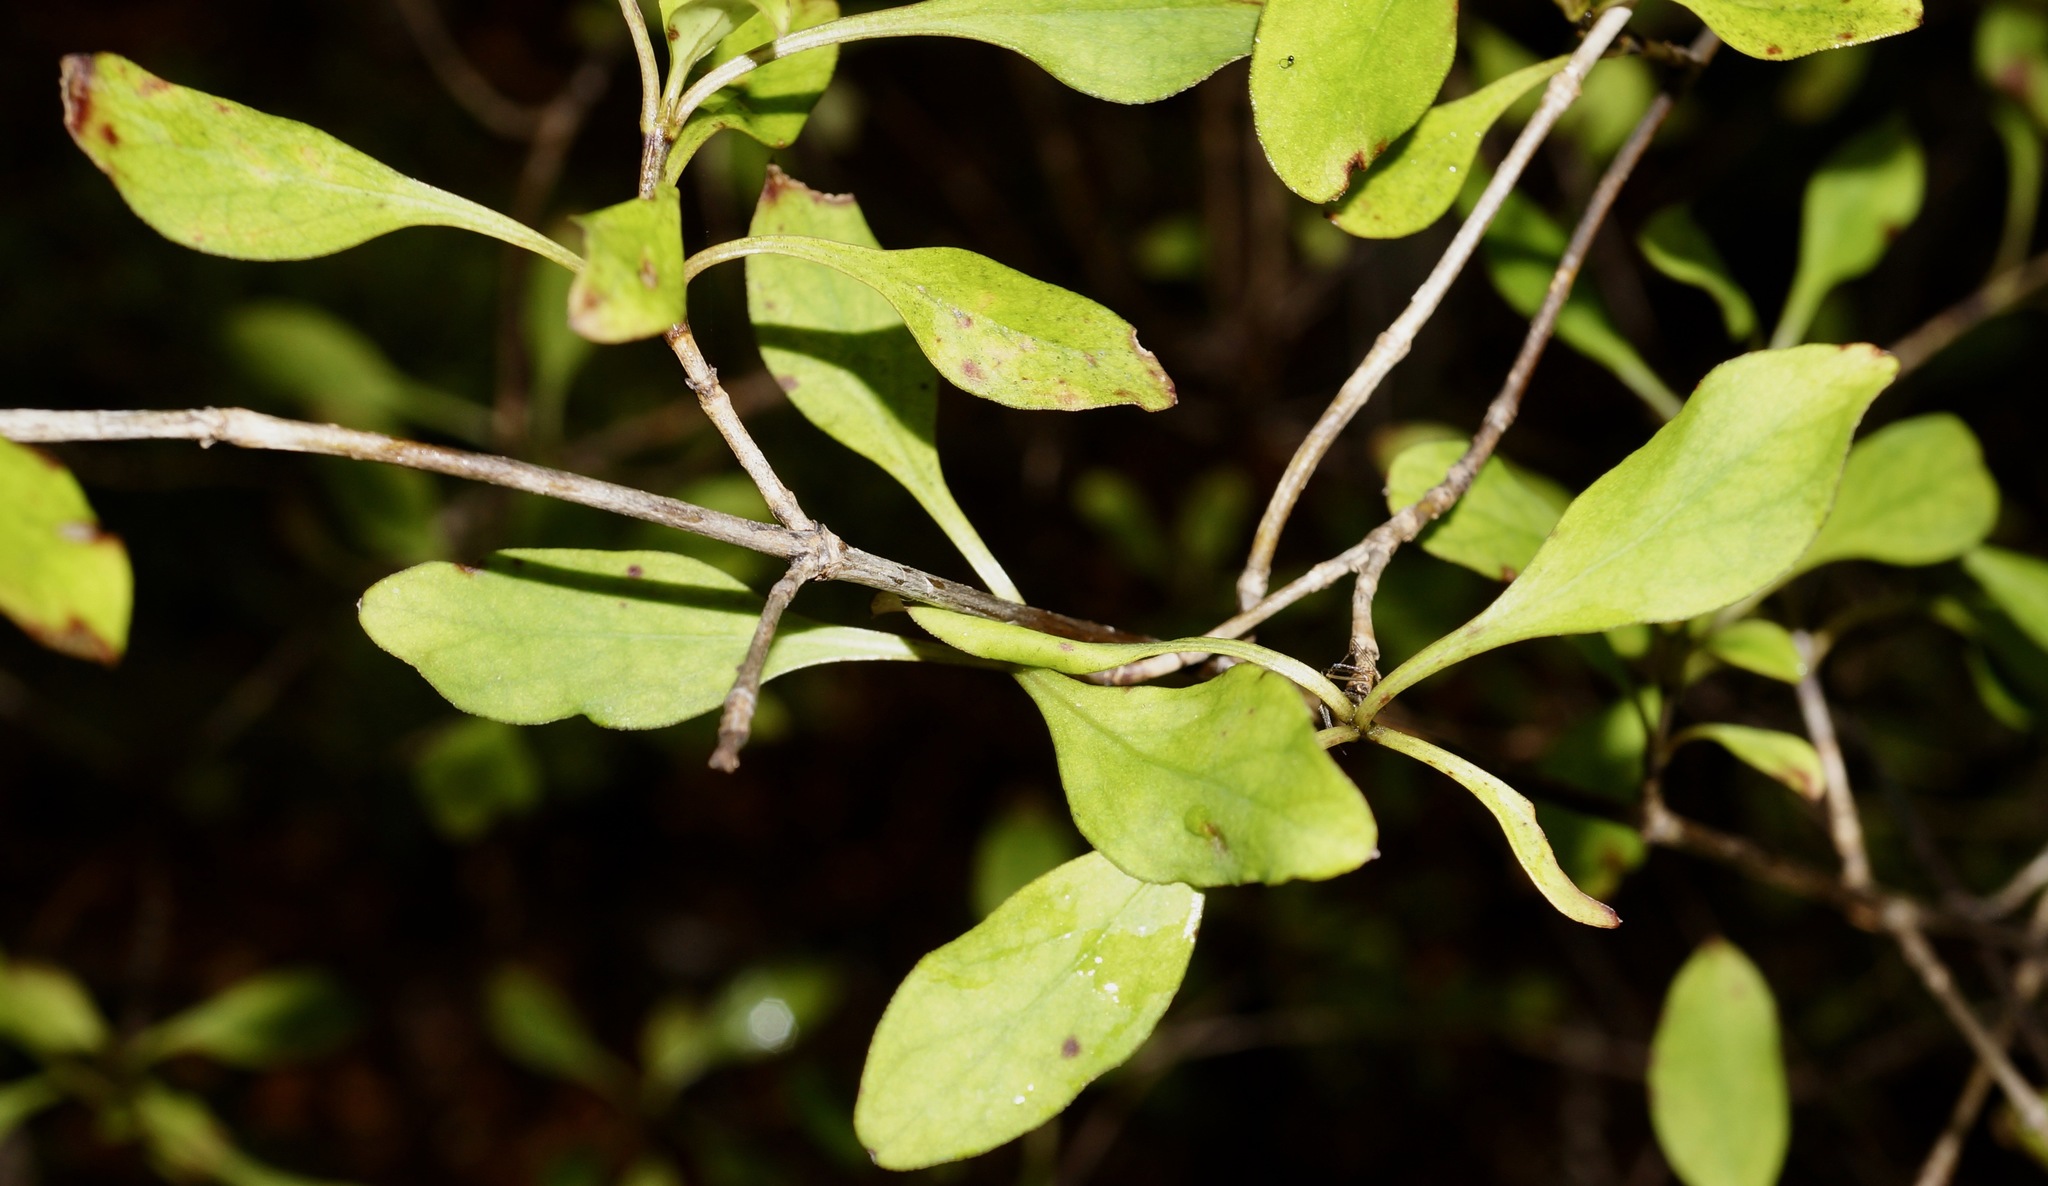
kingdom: Plantae
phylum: Tracheophyta
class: Magnoliopsida
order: Gentianales
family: Rubiaceae
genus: Coprosma
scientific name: Coprosma foetidissima
